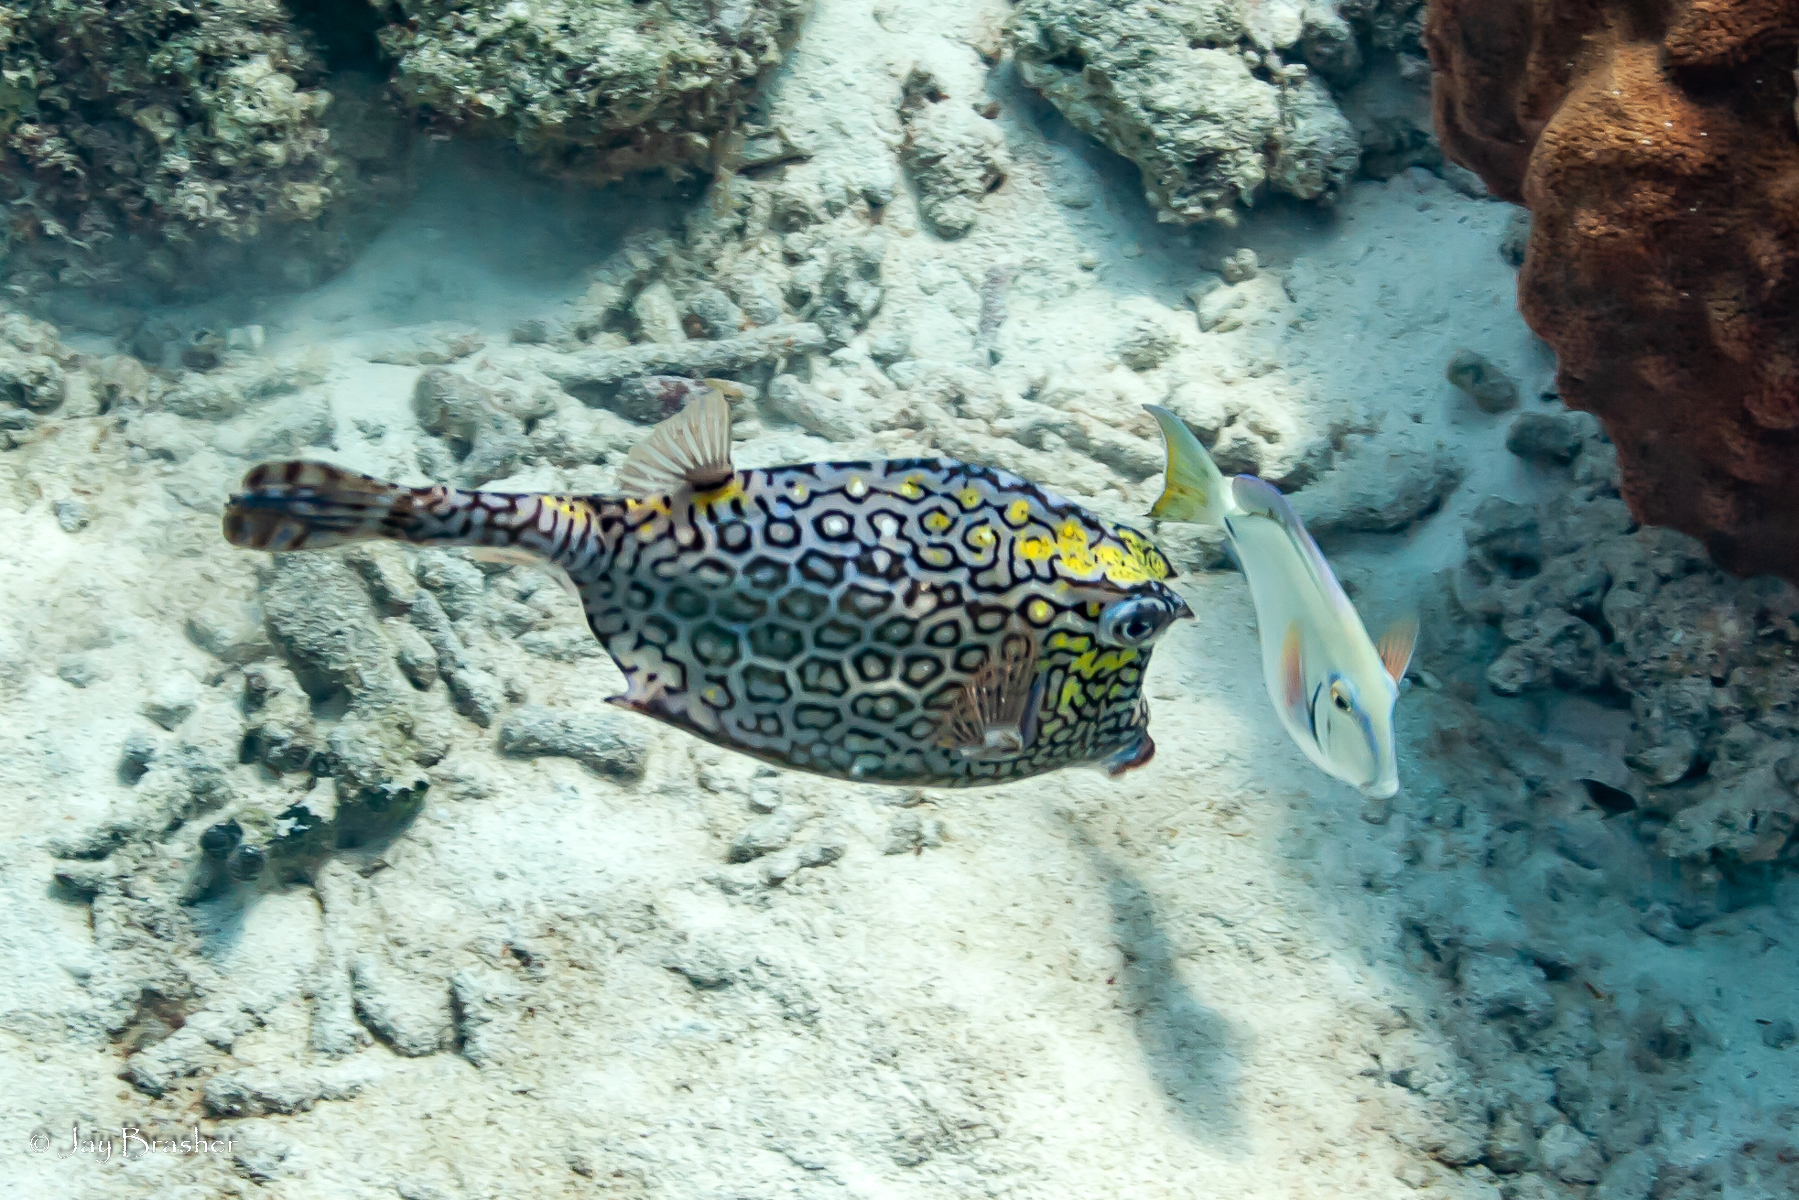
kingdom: Animalia
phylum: Chordata
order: Tetraodontiformes
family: Ostraciidae
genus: Acanthostracion
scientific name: Acanthostracion polygonius
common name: Honeycomb cowfish
